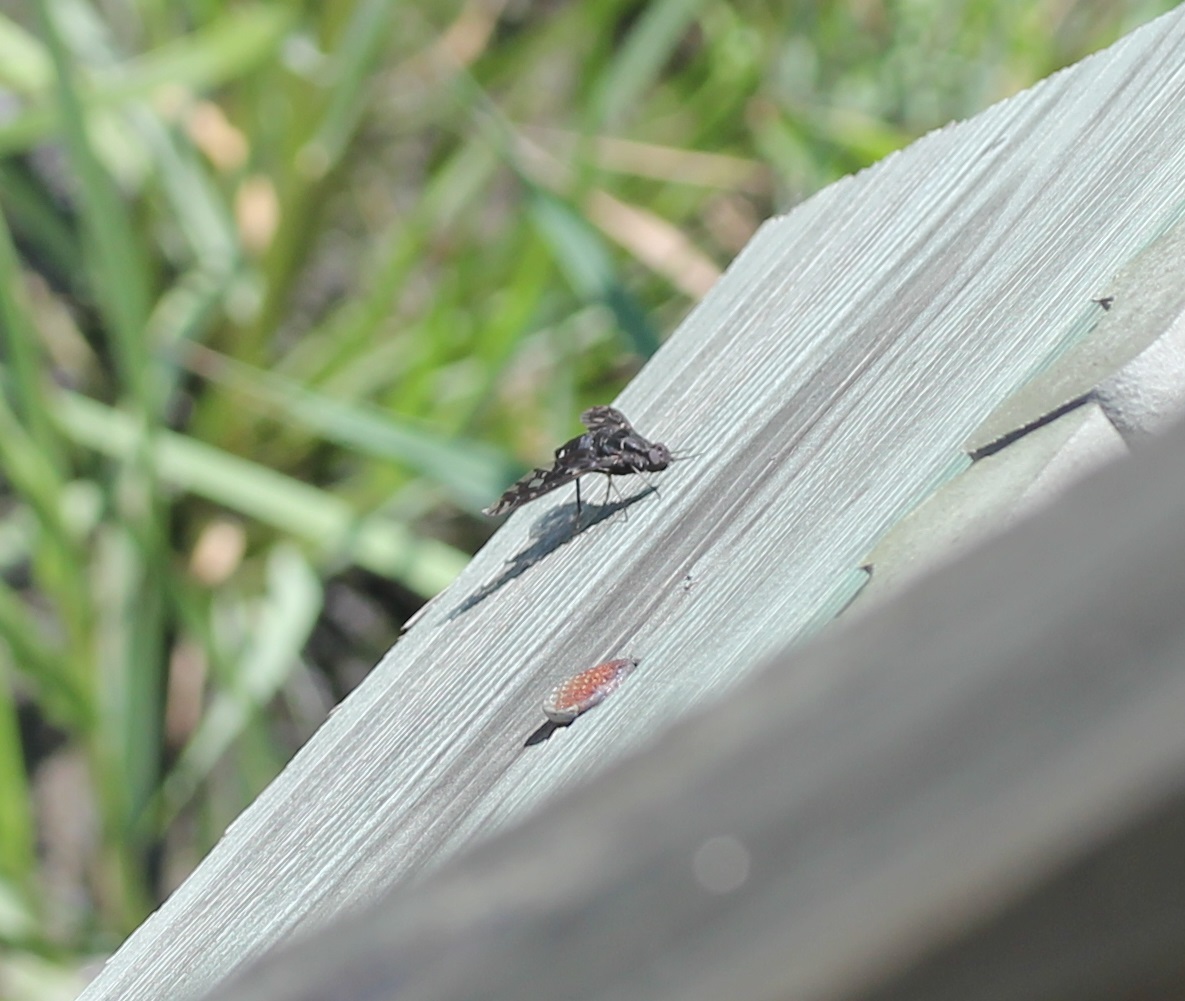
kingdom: Animalia
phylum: Arthropoda
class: Insecta
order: Diptera
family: Bombyliidae
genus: Xenox
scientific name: Xenox tigrinus
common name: Tiger bee fly
